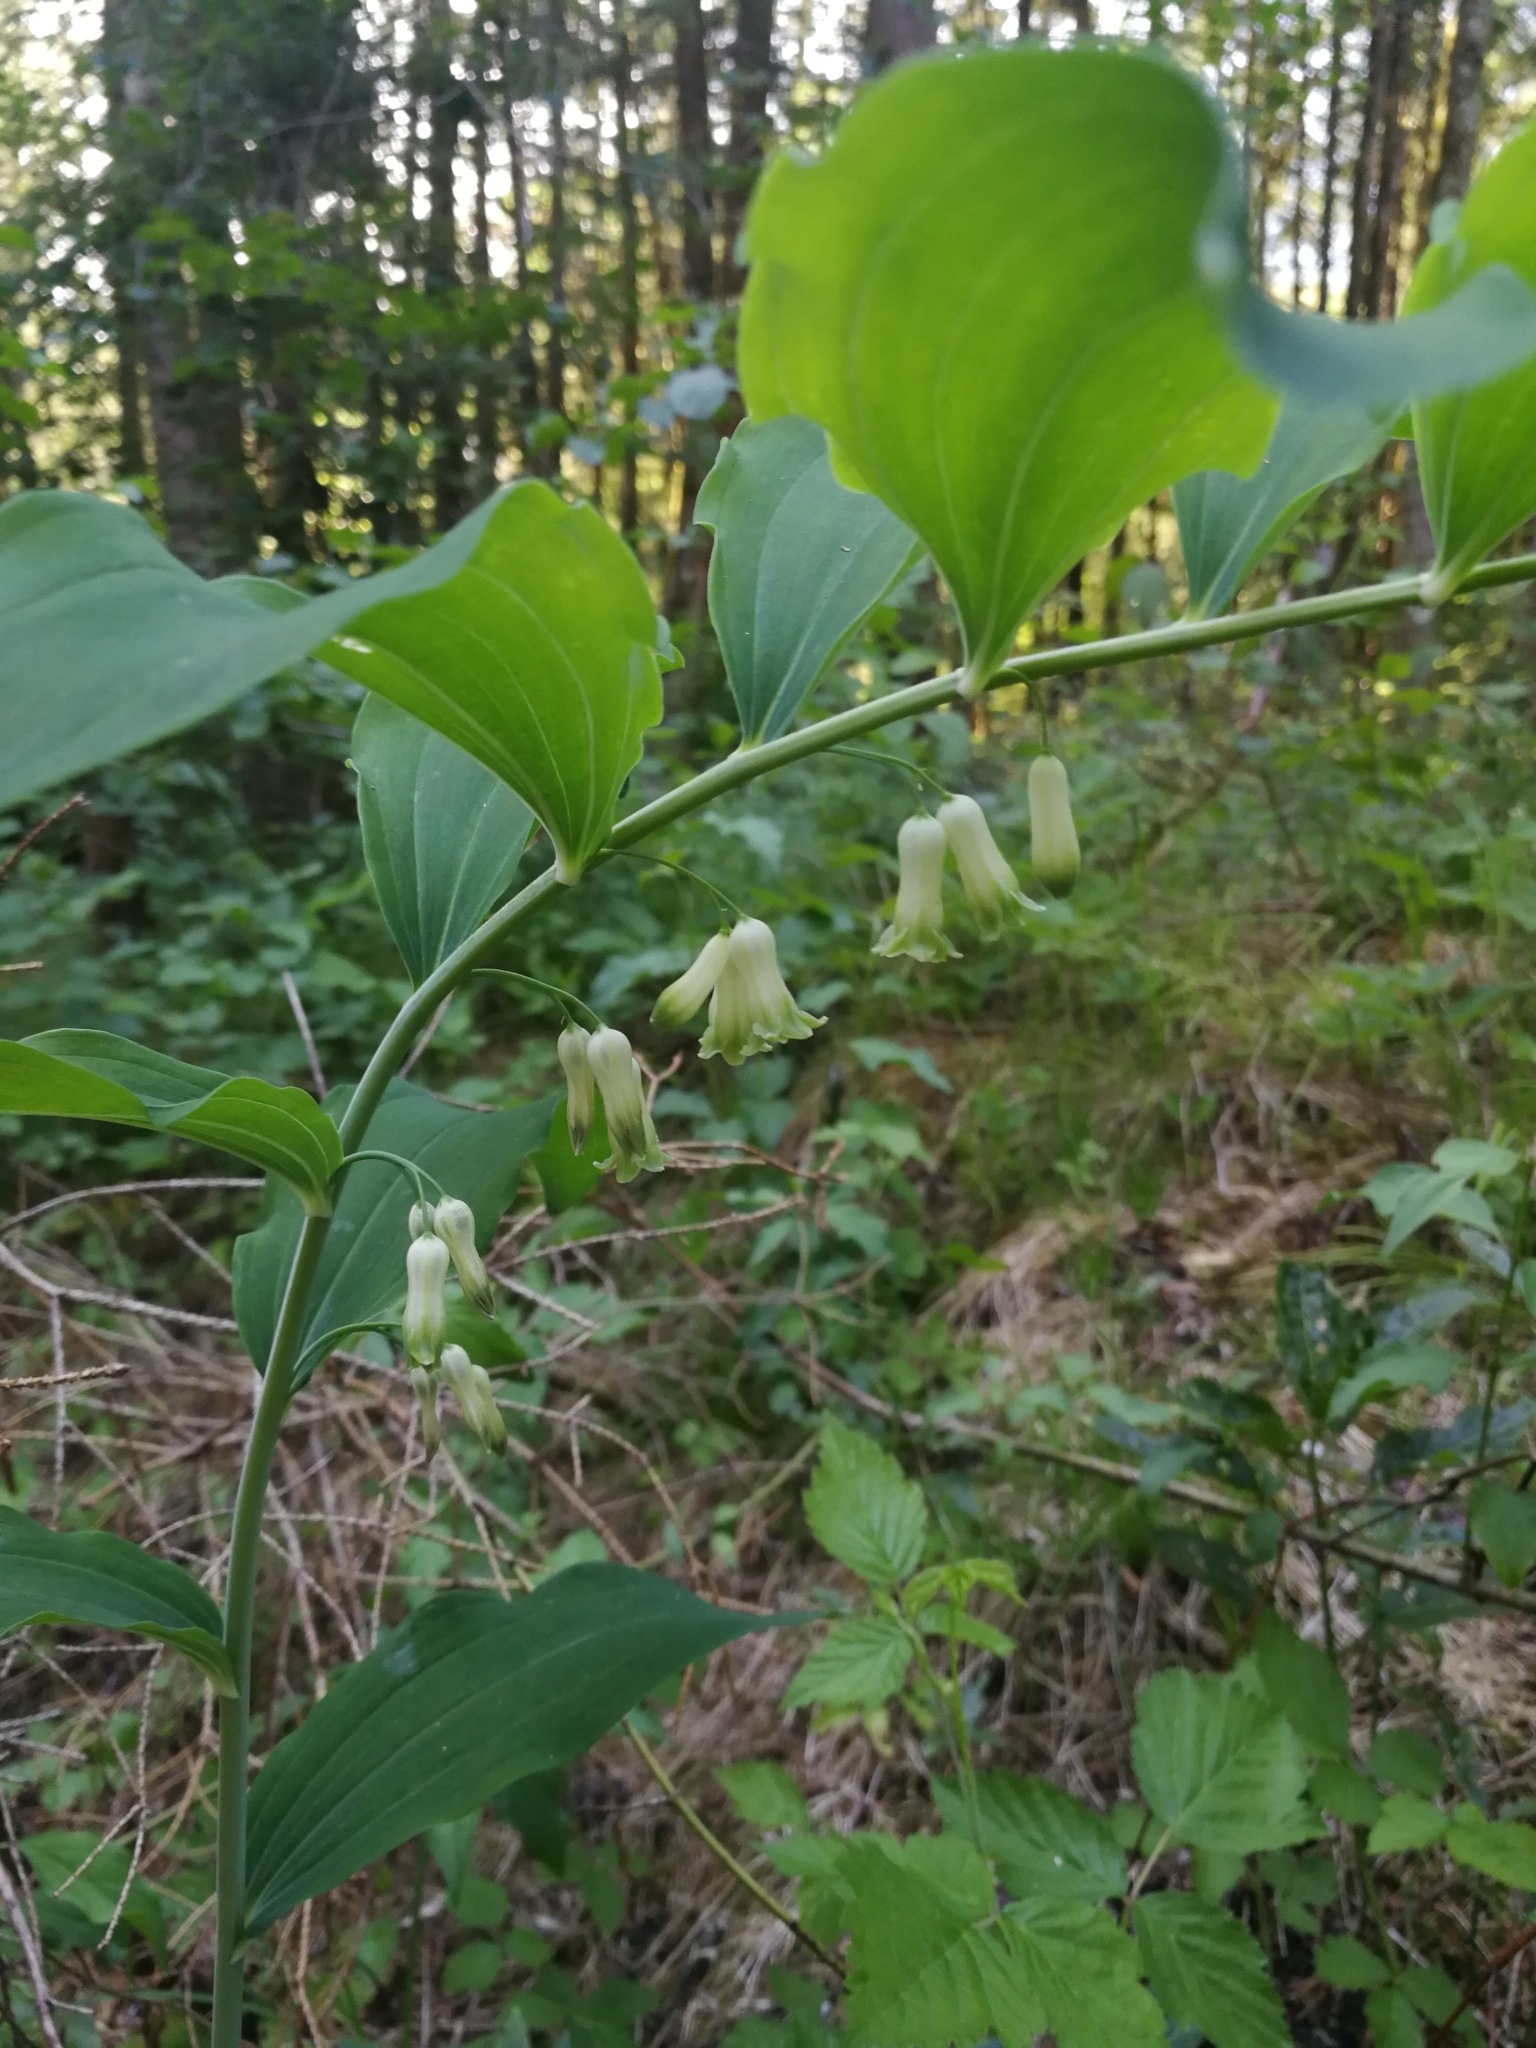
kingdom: Plantae
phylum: Tracheophyta
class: Liliopsida
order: Asparagales
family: Asparagaceae
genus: Polygonatum
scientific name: Polygonatum multiflorum
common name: Solomon's-seal
